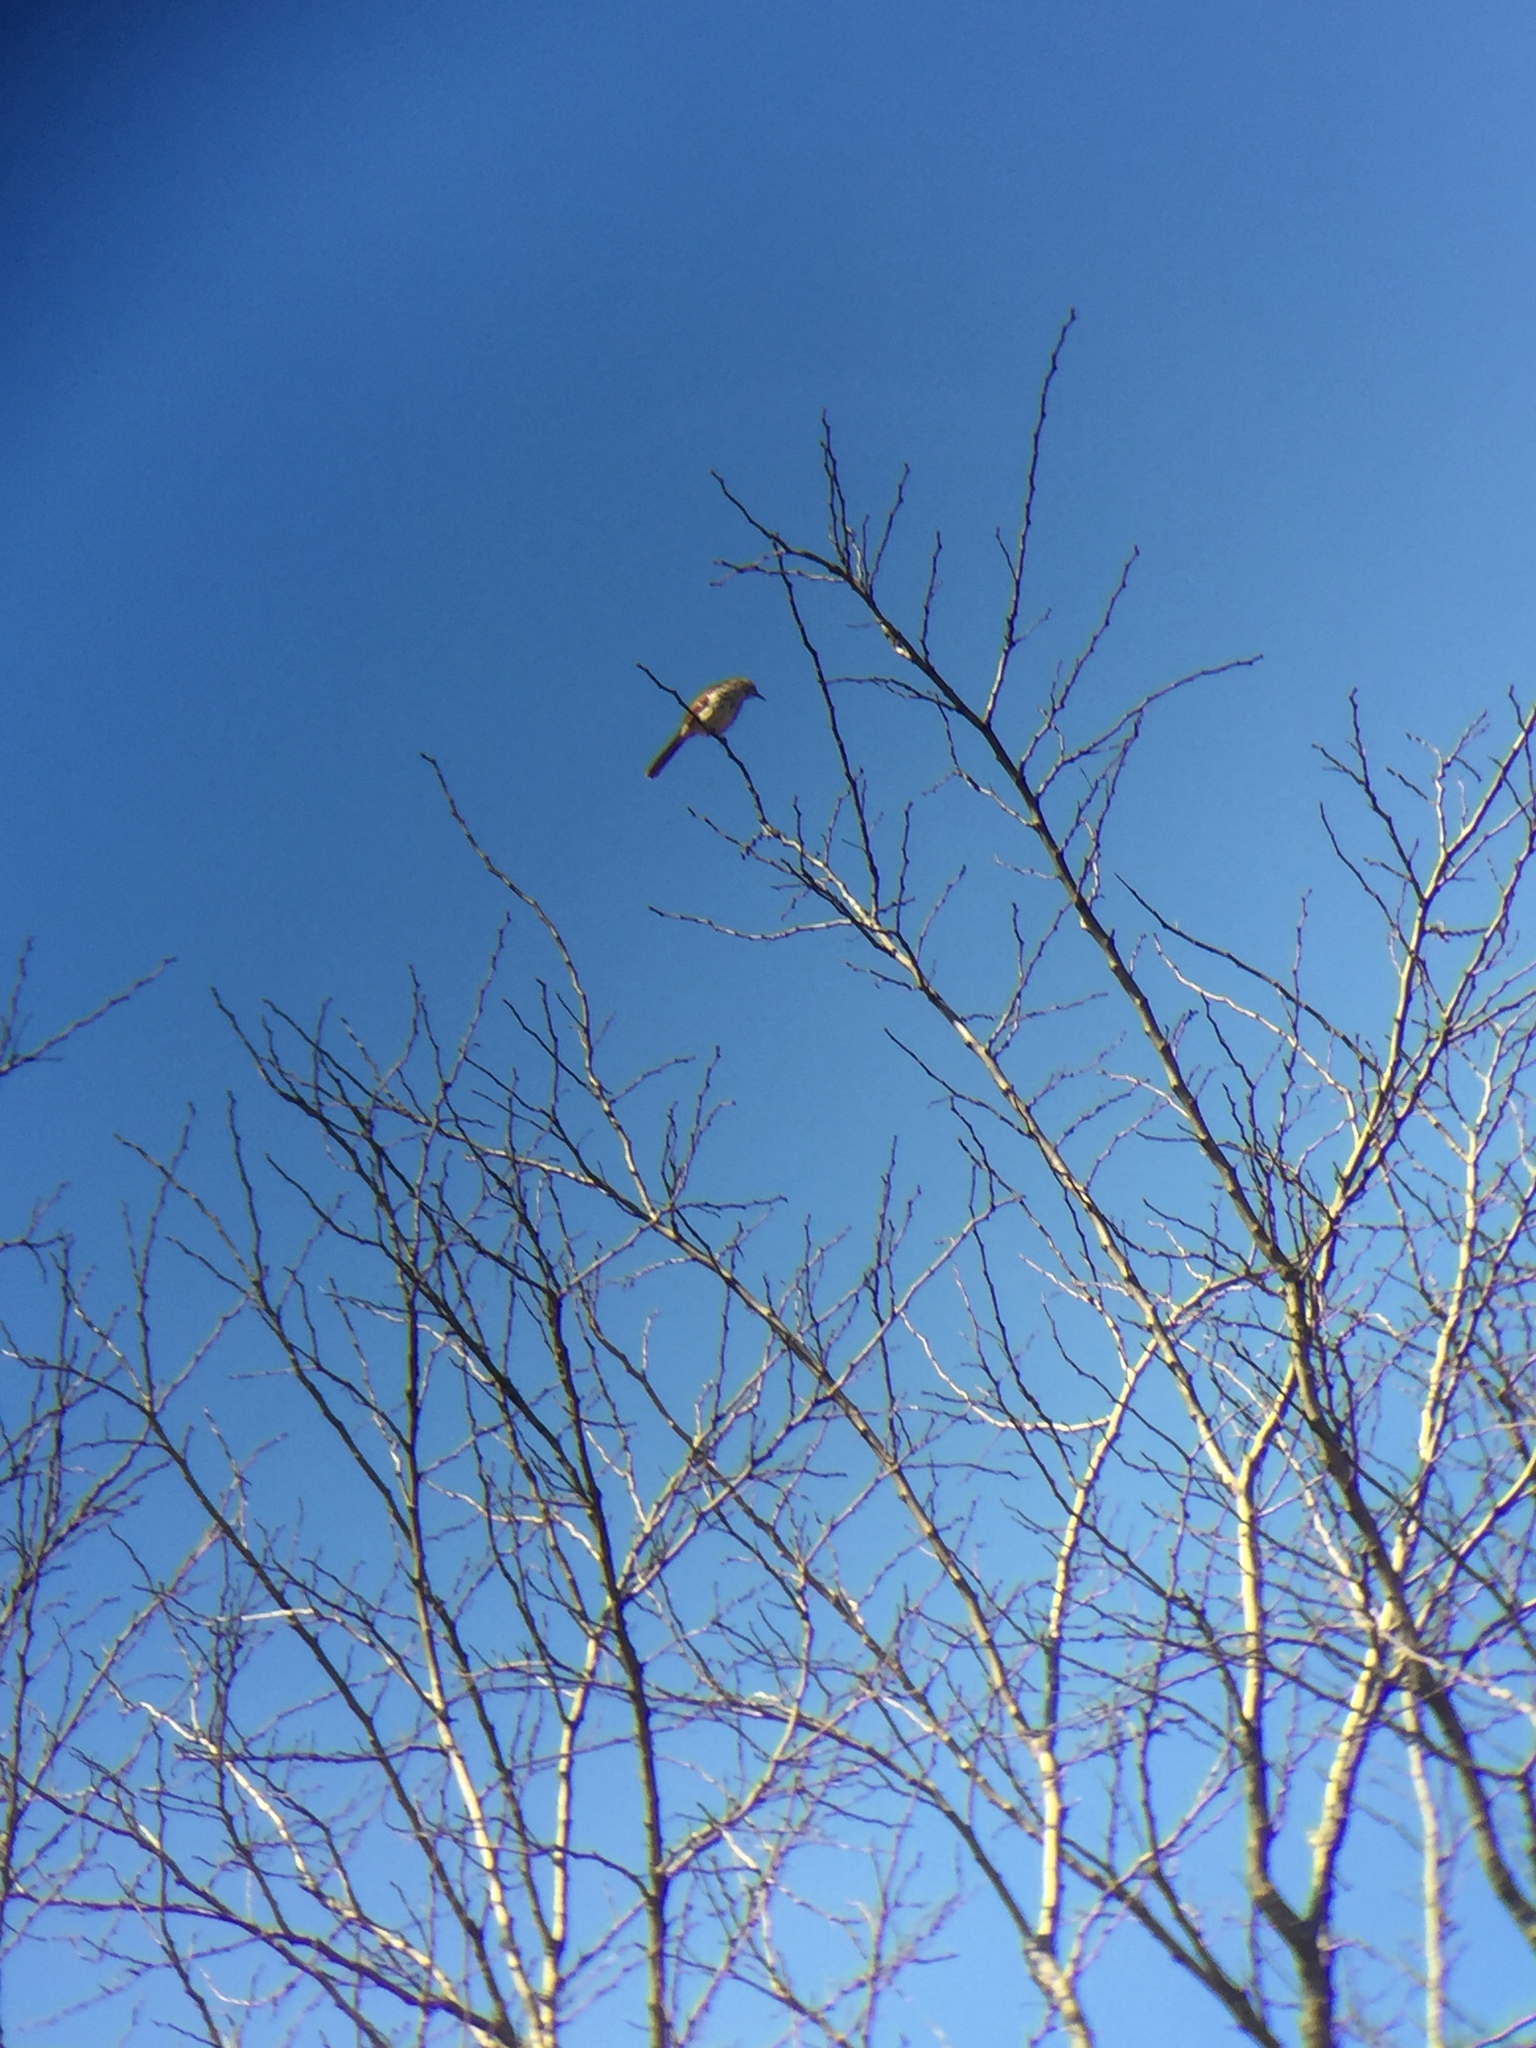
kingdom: Animalia
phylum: Chordata
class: Aves
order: Passeriformes
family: Mimidae
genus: Toxostoma
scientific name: Toxostoma rufum
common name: Brown thrasher
